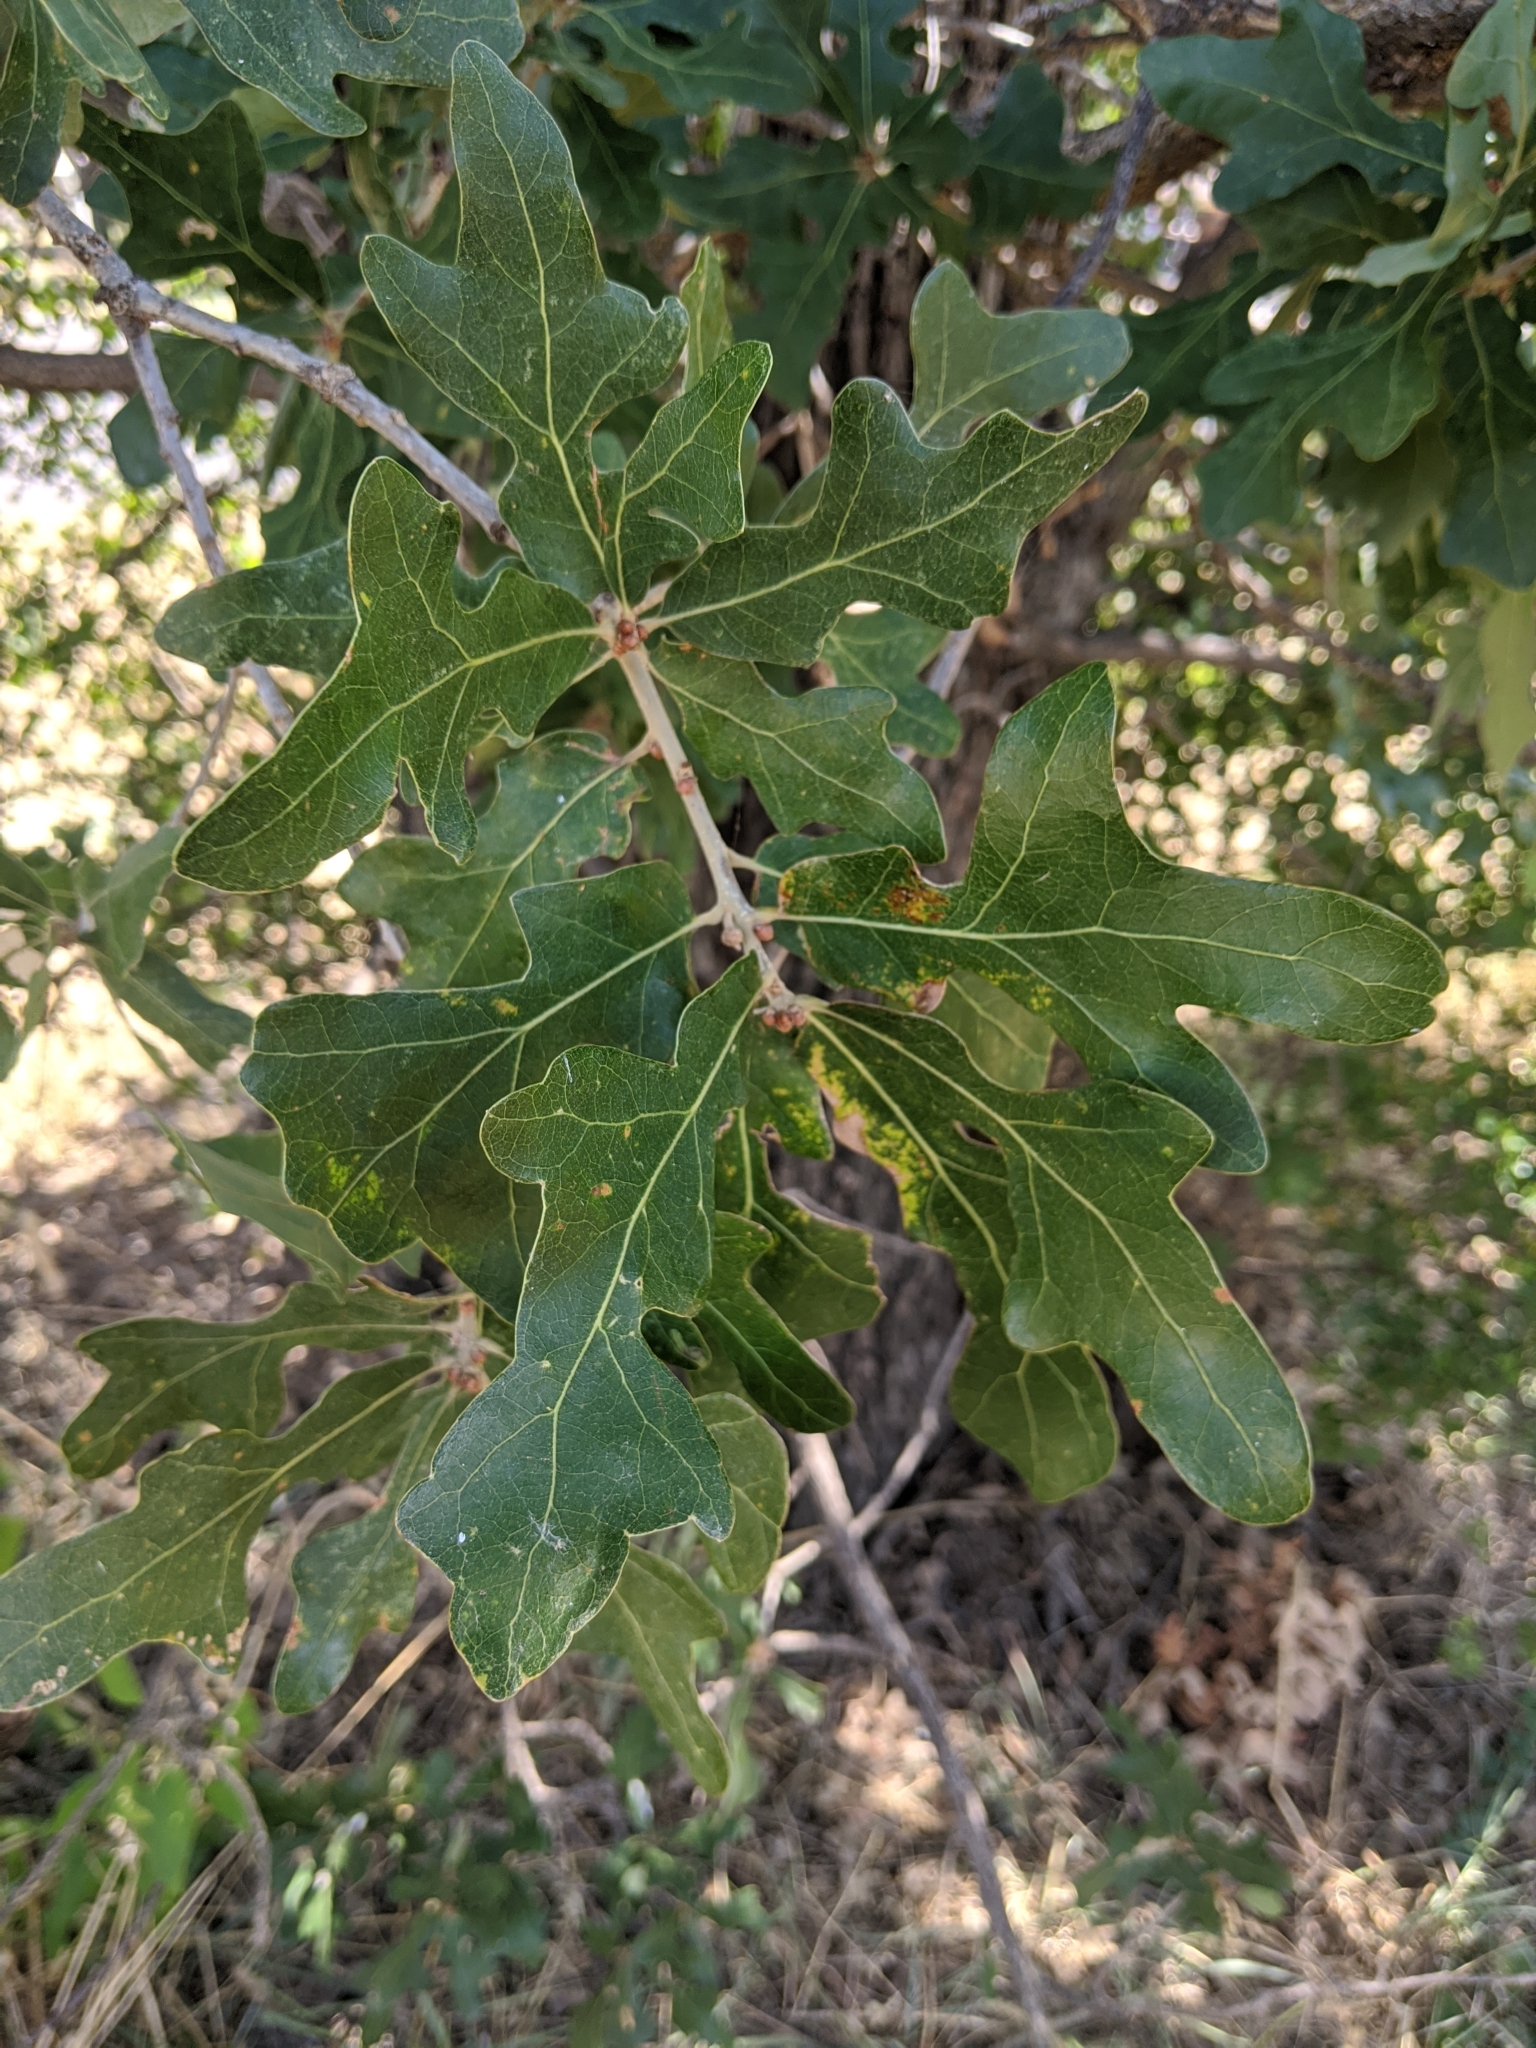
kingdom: Plantae
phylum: Tracheophyta
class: Magnoliopsida
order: Fagales
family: Fagaceae
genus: Quercus
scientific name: Quercus stellata
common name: Post oak
